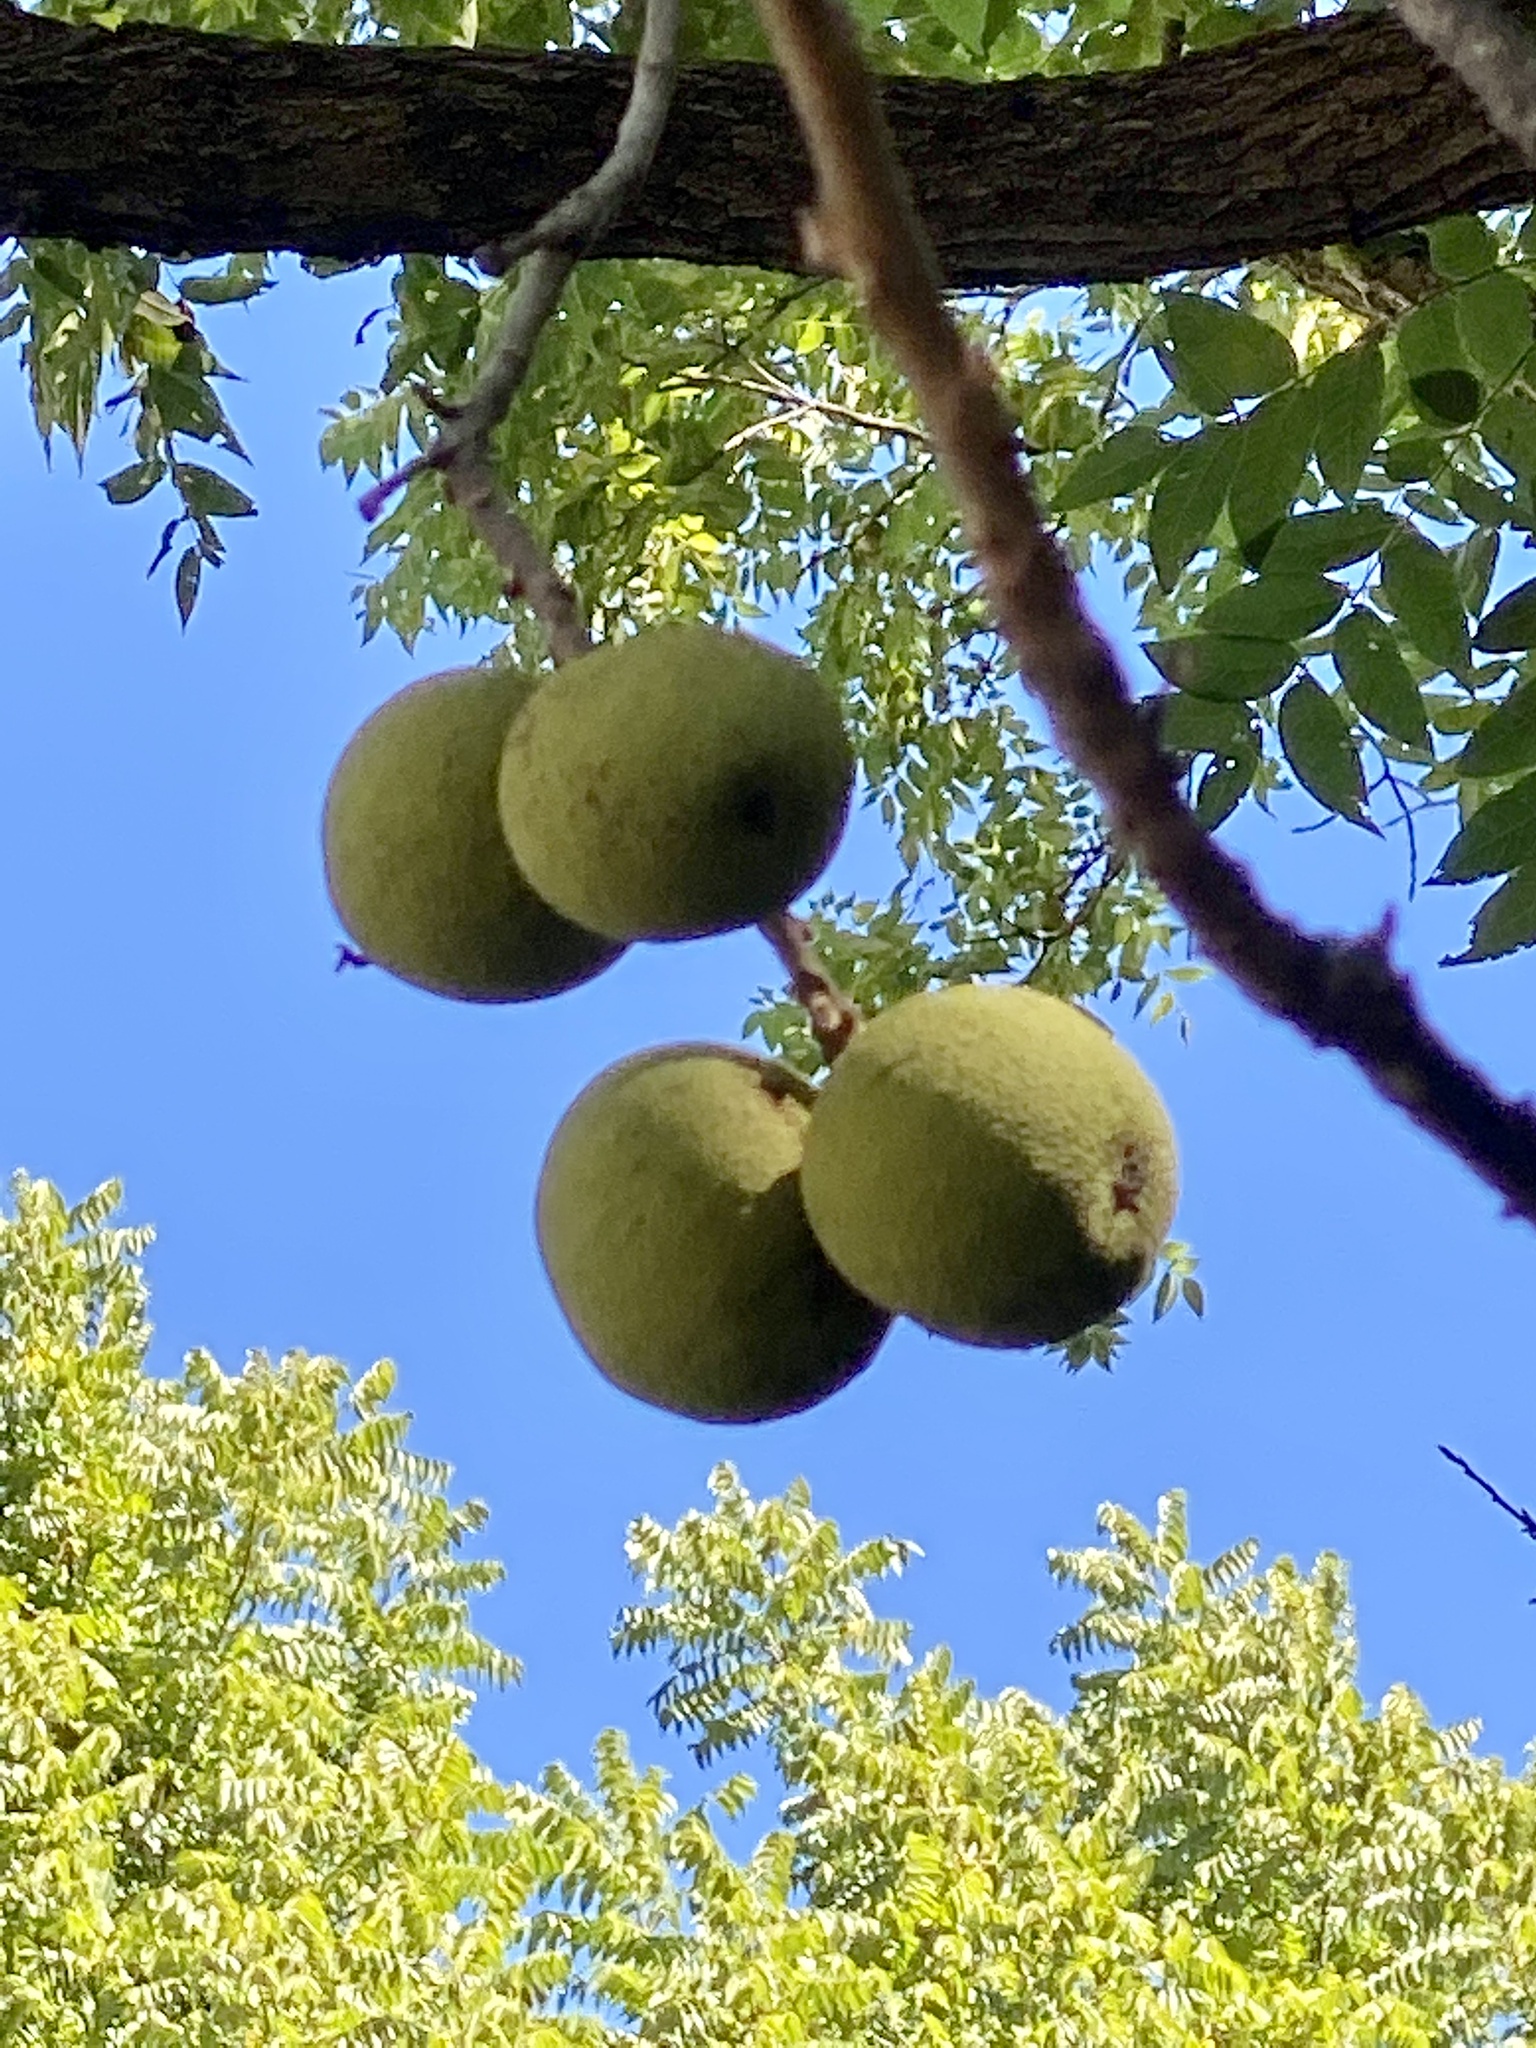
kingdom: Plantae
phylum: Tracheophyta
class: Magnoliopsida
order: Fagales
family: Juglandaceae
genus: Juglans
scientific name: Juglans nigra
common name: Black walnut
